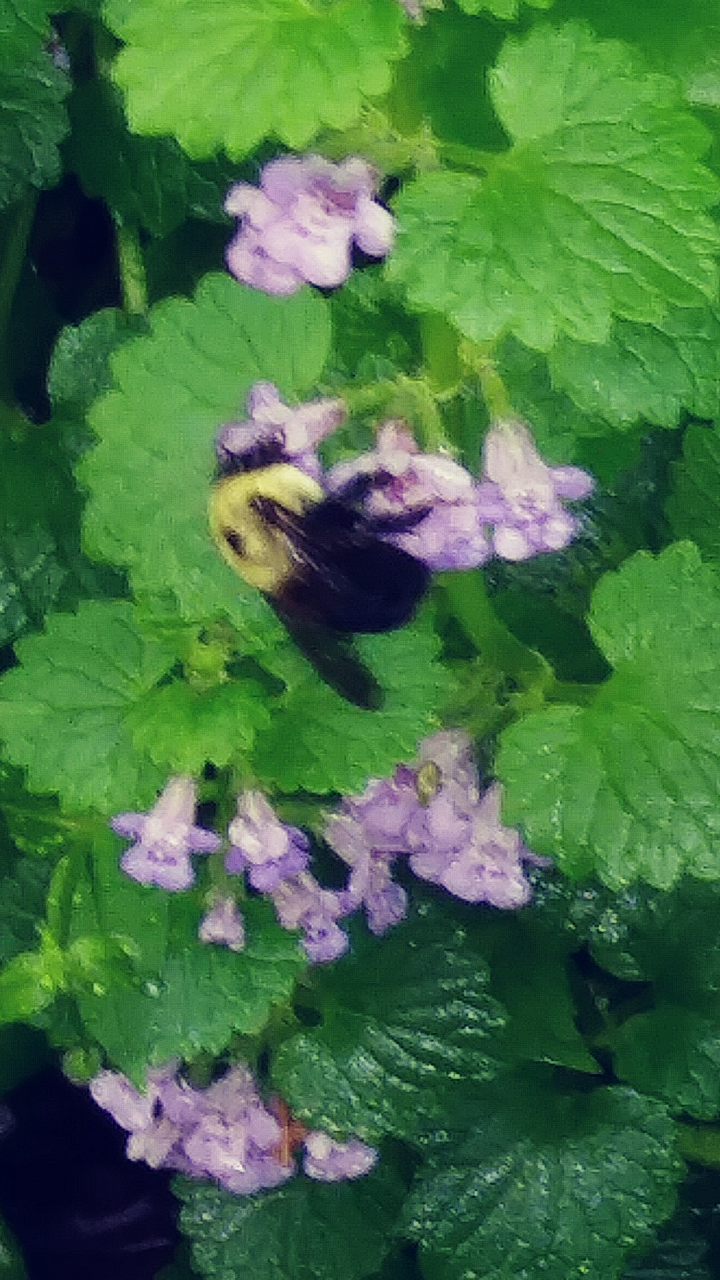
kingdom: Animalia
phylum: Arthropoda
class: Insecta
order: Hymenoptera
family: Apidae
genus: Bombus
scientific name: Bombus griseocollis
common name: Brown-belted bumble bee
